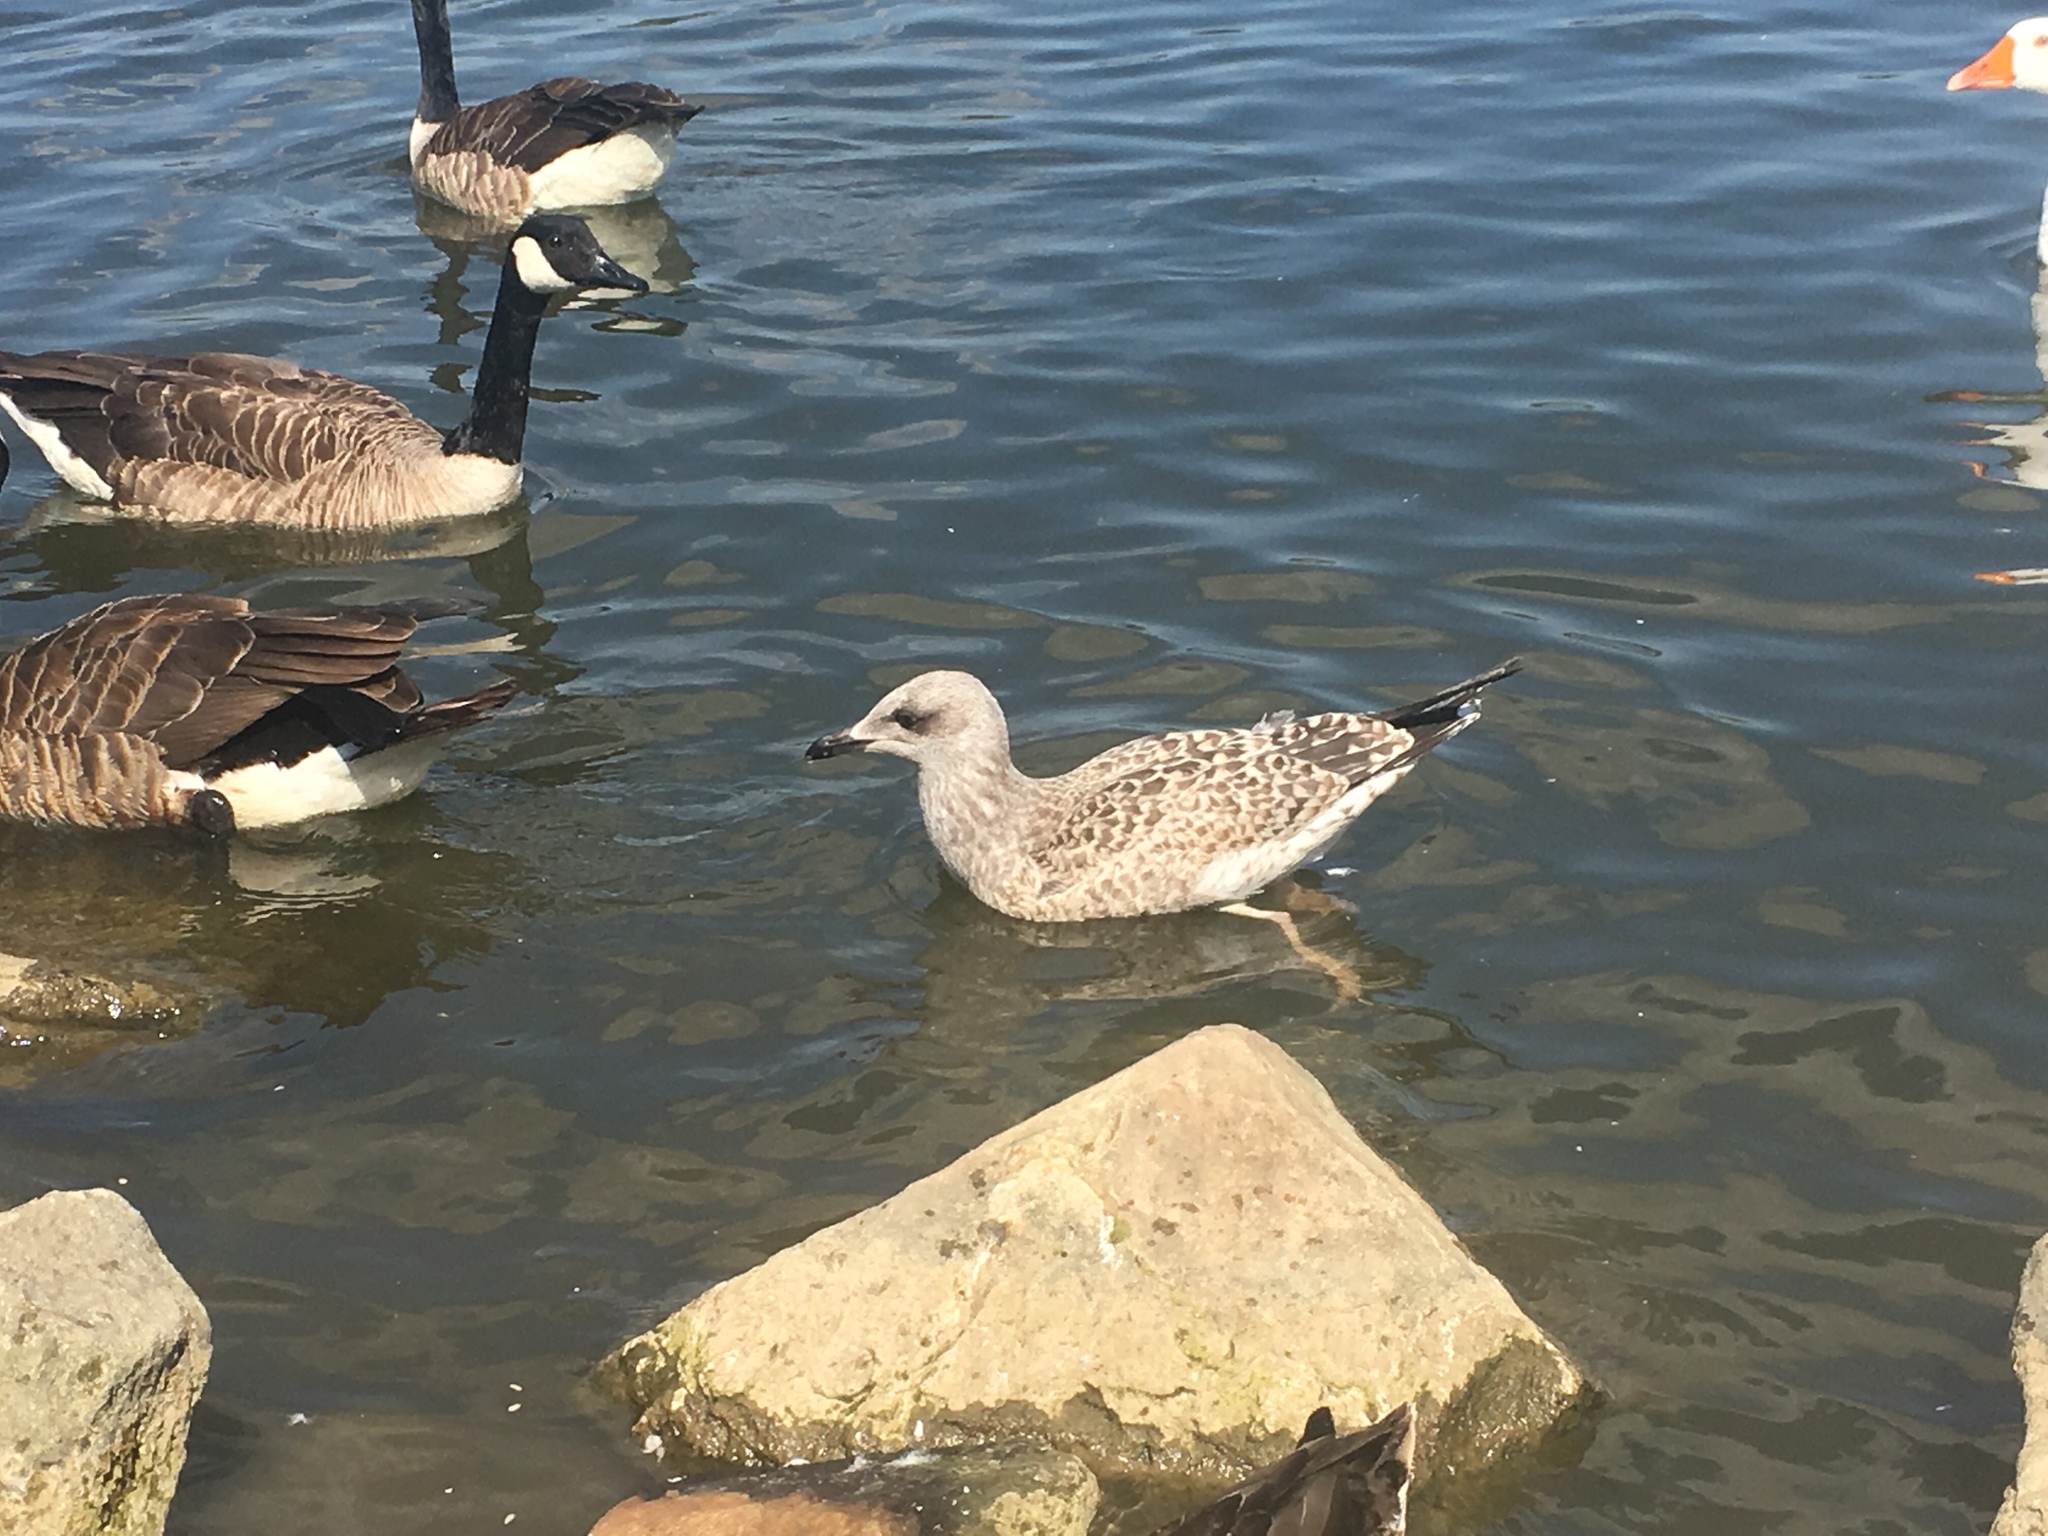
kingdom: Animalia
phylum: Chordata
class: Aves
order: Charadriiformes
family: Laridae
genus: Larus
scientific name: Larus fuscus
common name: Lesser black-backed gull
